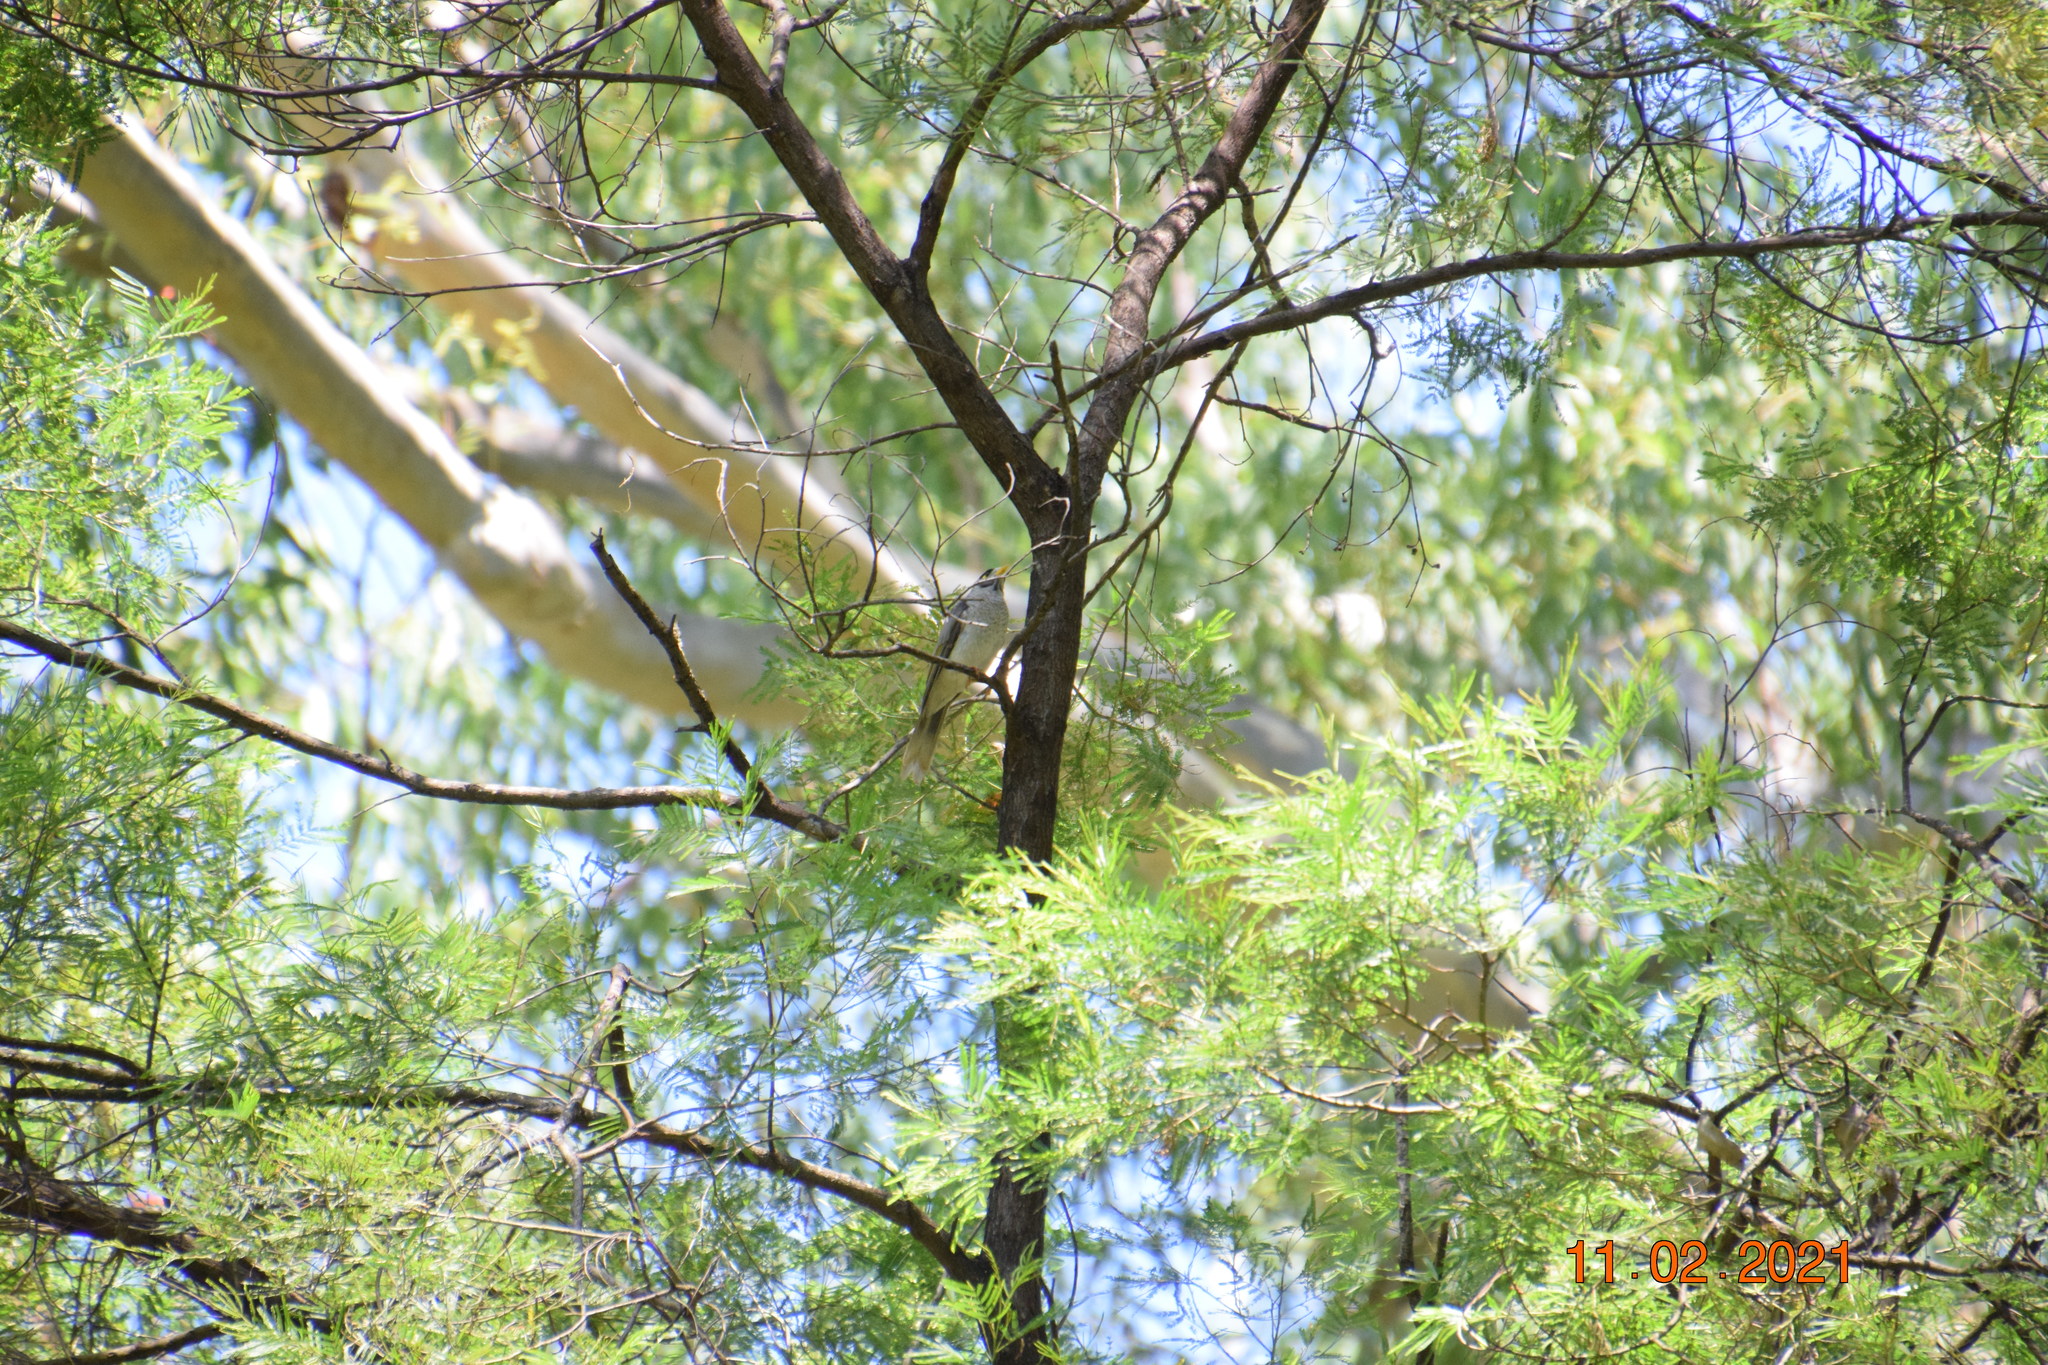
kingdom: Animalia
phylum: Chordata
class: Aves
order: Passeriformes
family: Meliphagidae
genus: Manorina
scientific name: Manorina melanocephala
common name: Noisy miner
